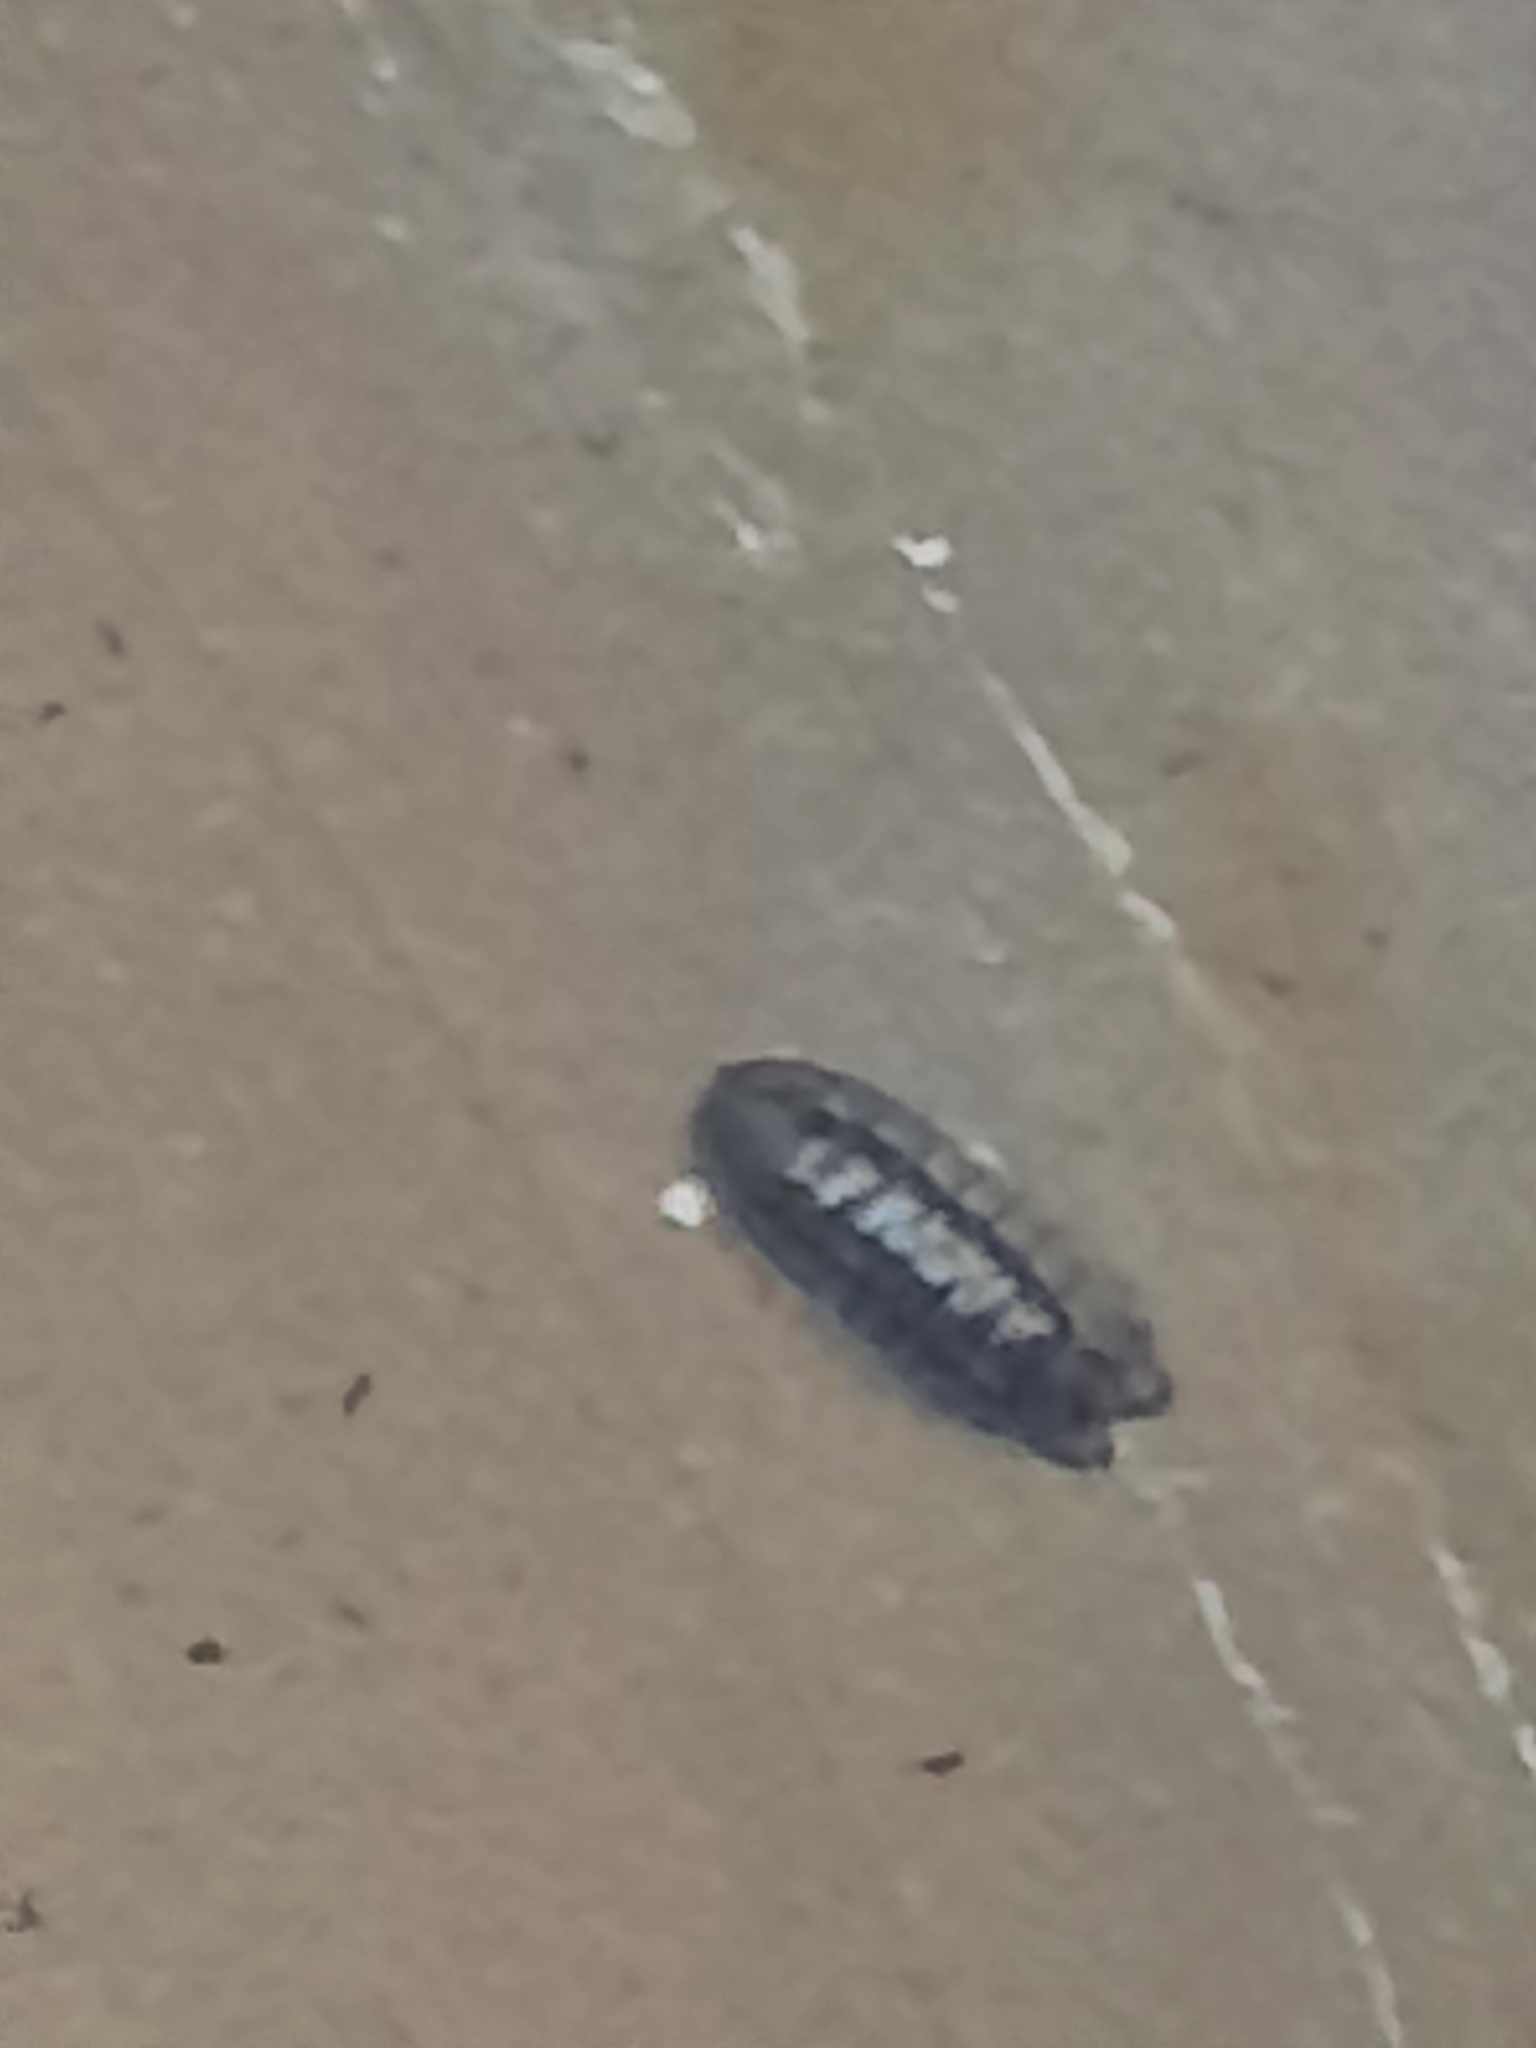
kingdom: Animalia
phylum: Arthropoda
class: Malacostraca
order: Isopoda
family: Armadillidiidae
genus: Armadillidium
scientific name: Armadillidium nasatum
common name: Isopod
